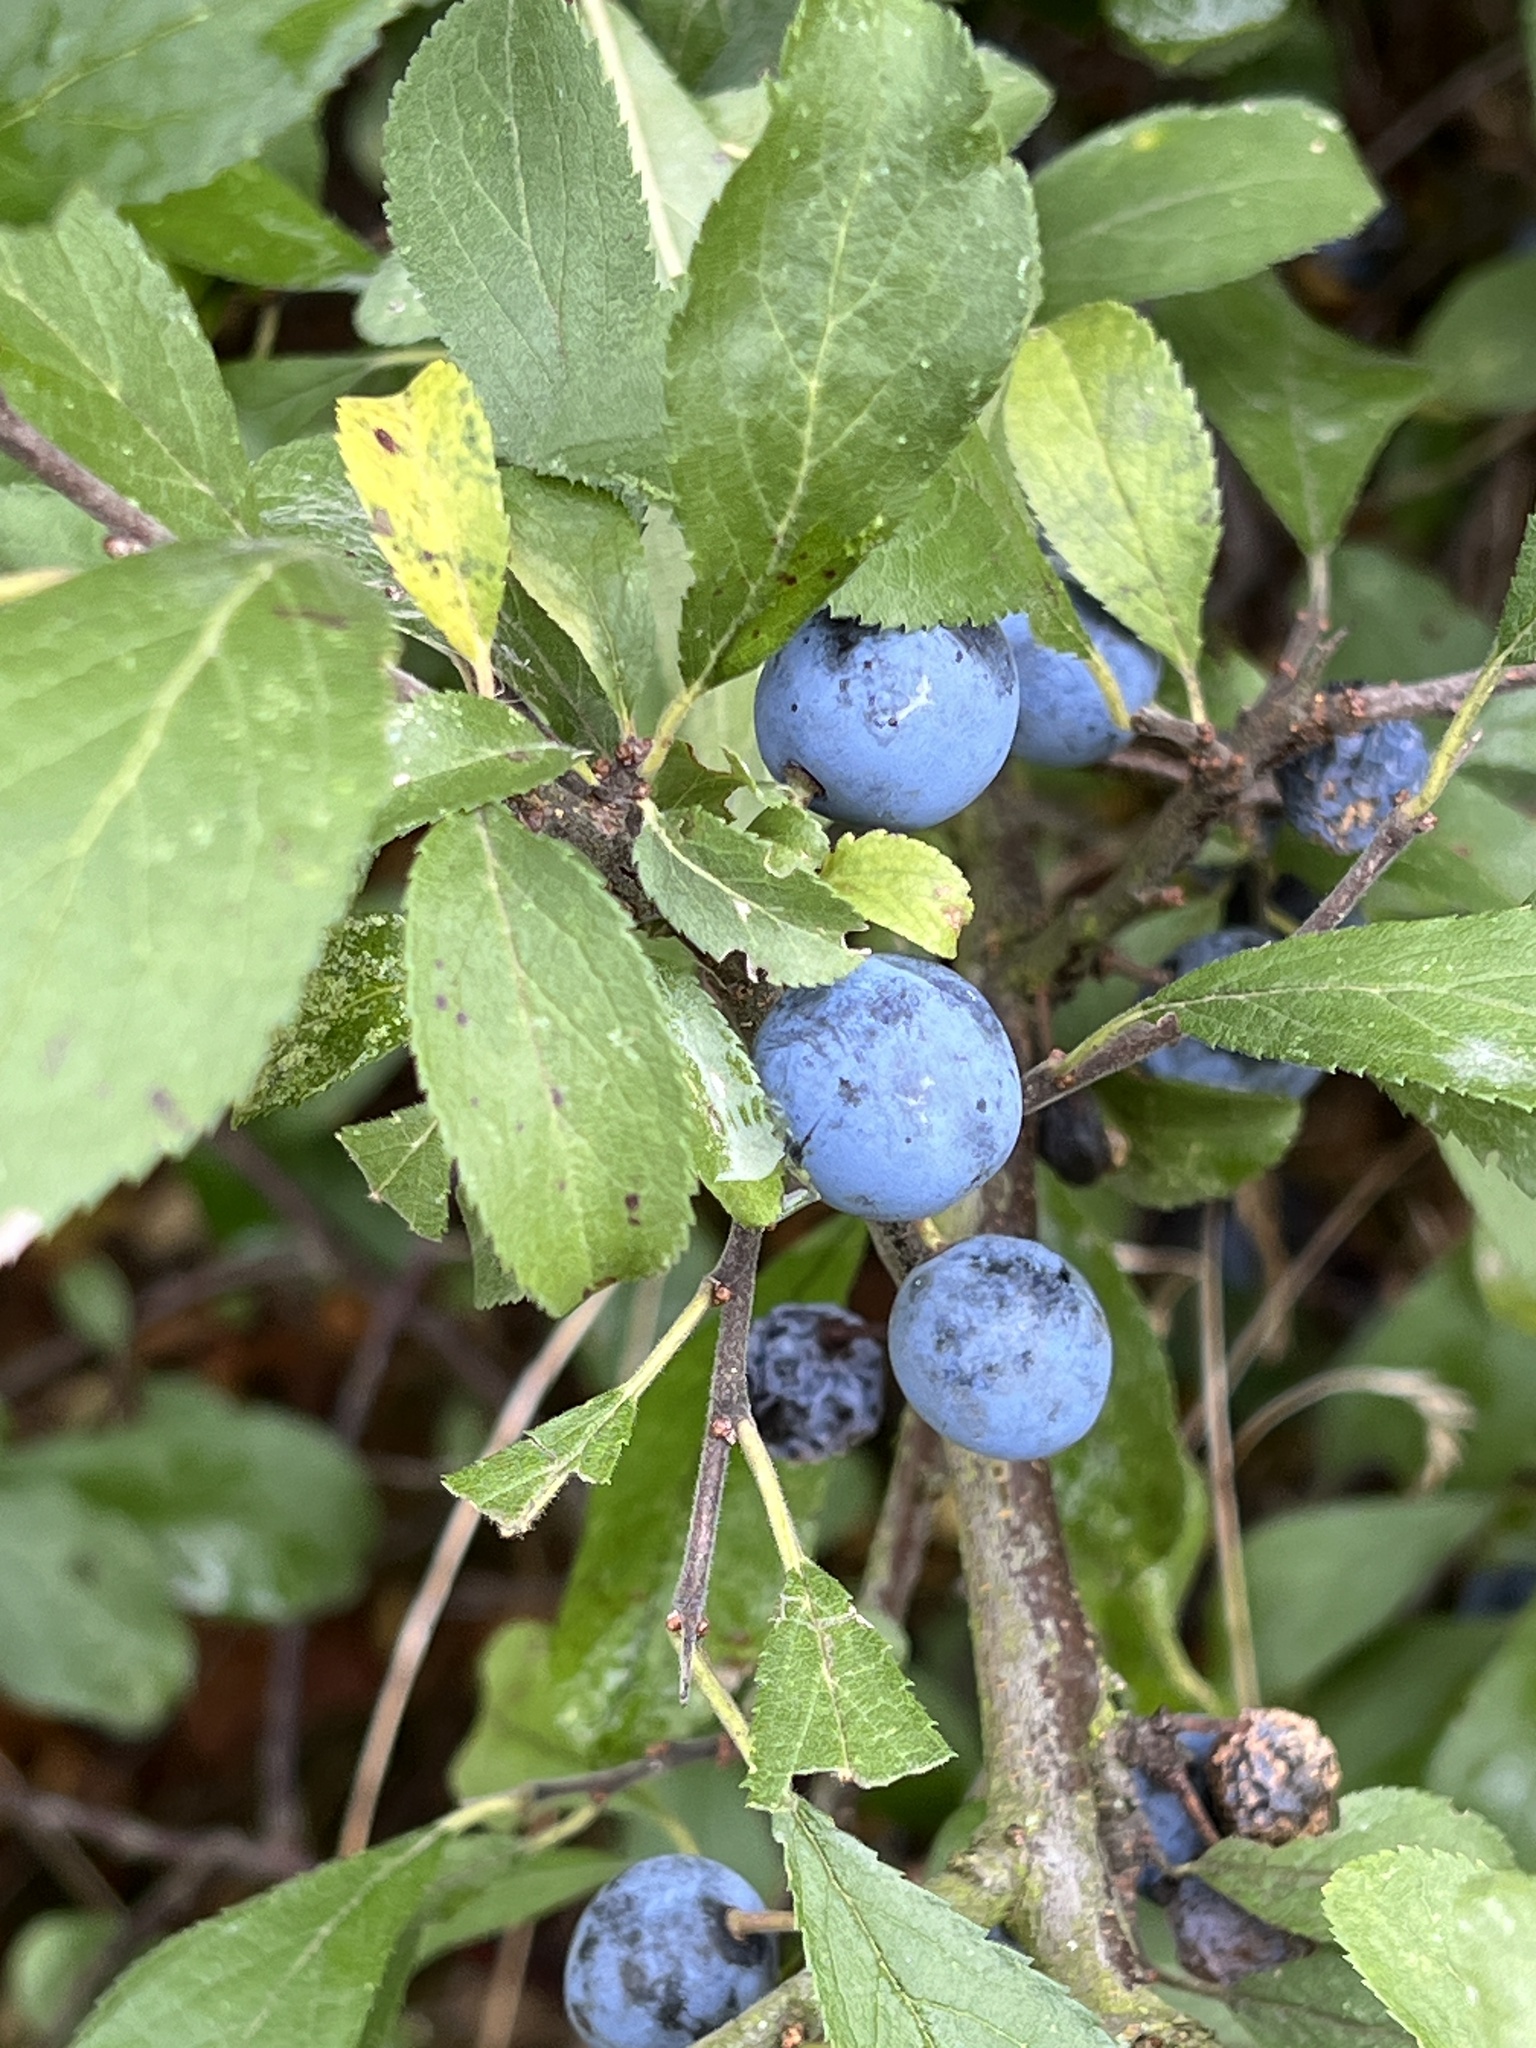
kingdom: Plantae
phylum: Tracheophyta
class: Magnoliopsida
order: Rosales
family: Rosaceae
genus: Prunus
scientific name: Prunus spinosa
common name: Blackthorn
